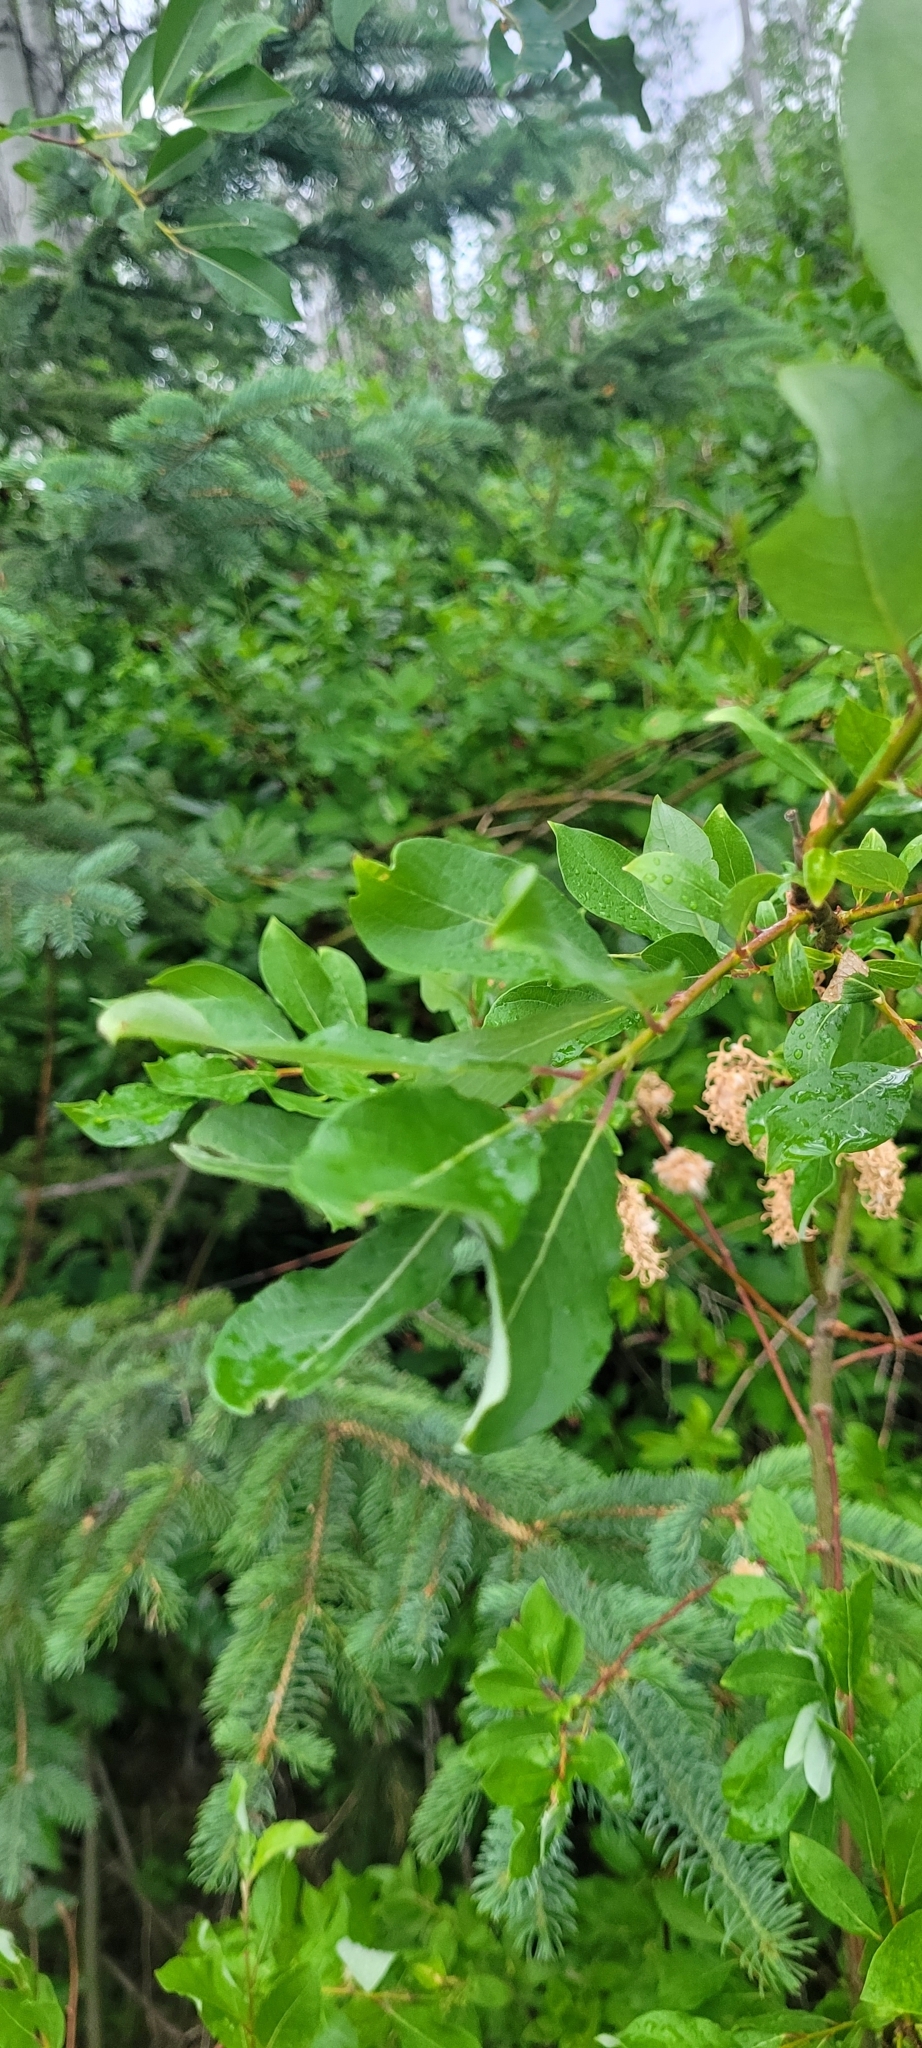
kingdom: Plantae
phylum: Tracheophyta
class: Magnoliopsida
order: Malpighiales
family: Salicaceae
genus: Salix
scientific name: Salix bebbiana
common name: Bebb's willow
